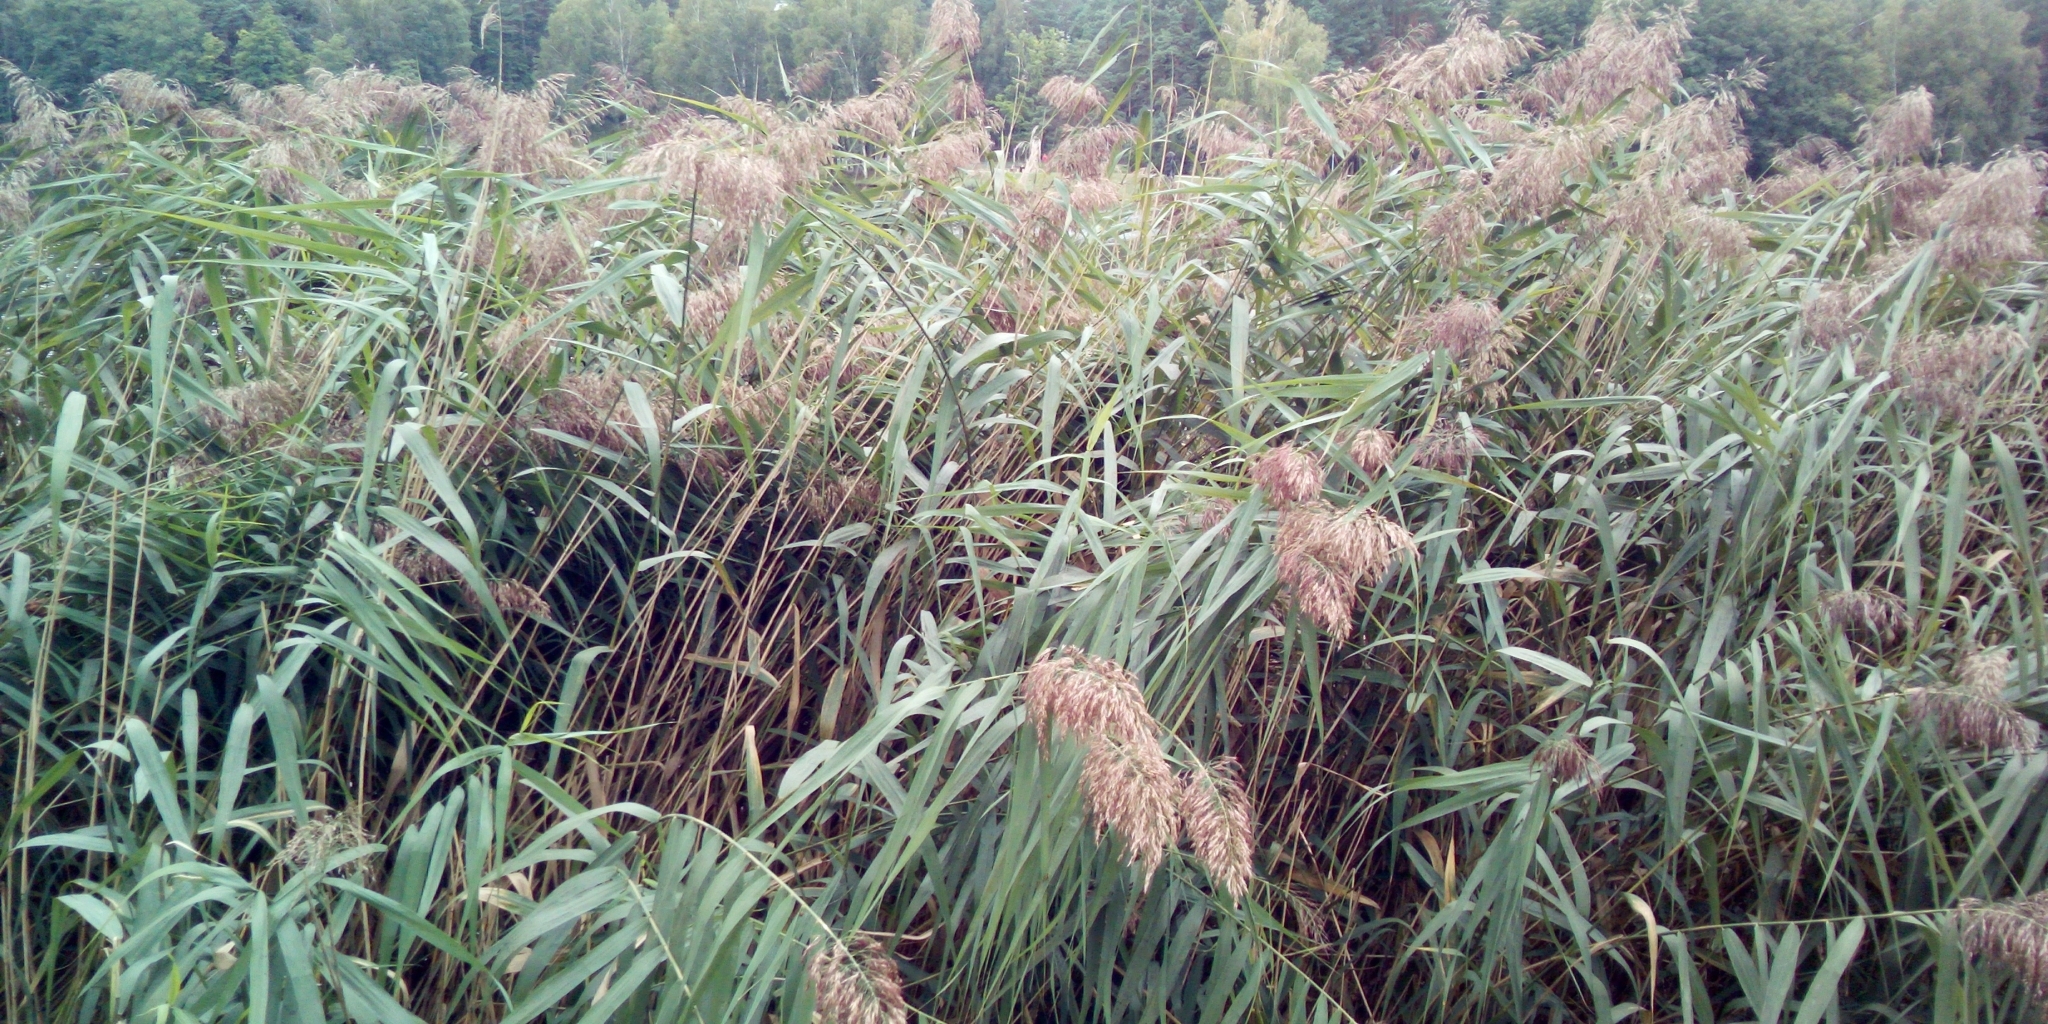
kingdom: Plantae
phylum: Tracheophyta
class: Liliopsida
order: Poales
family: Poaceae
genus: Phragmites
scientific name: Phragmites australis
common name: Common reed
